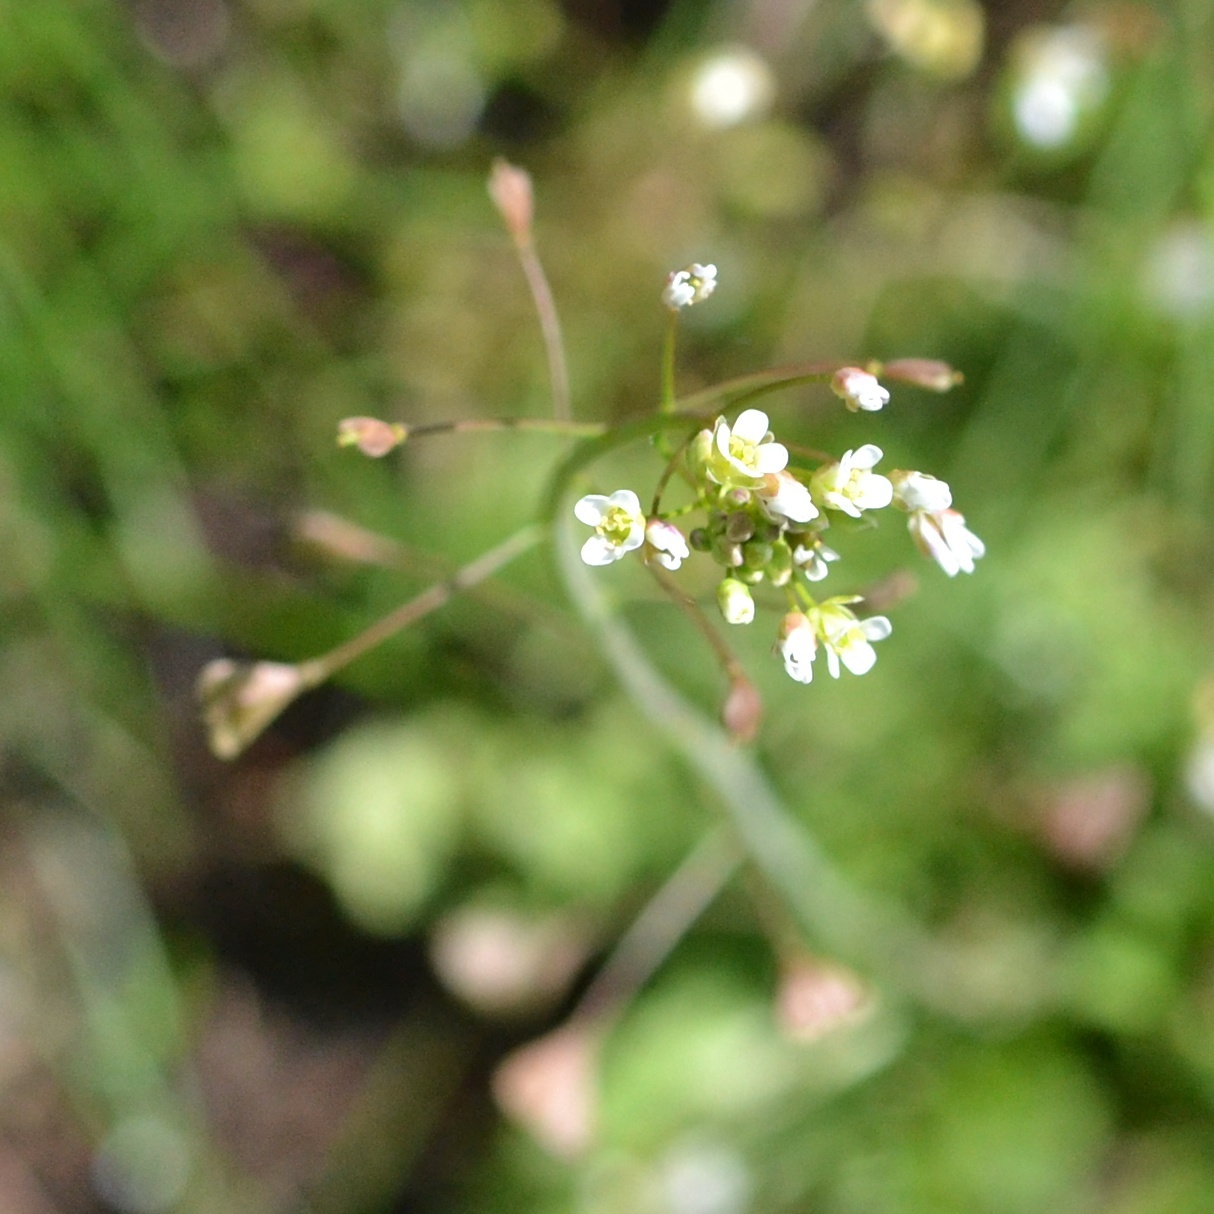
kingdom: Plantae
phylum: Tracheophyta
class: Magnoliopsida
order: Brassicales
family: Brassicaceae
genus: Capsella
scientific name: Capsella bursa-pastoris
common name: Shepherd's purse
